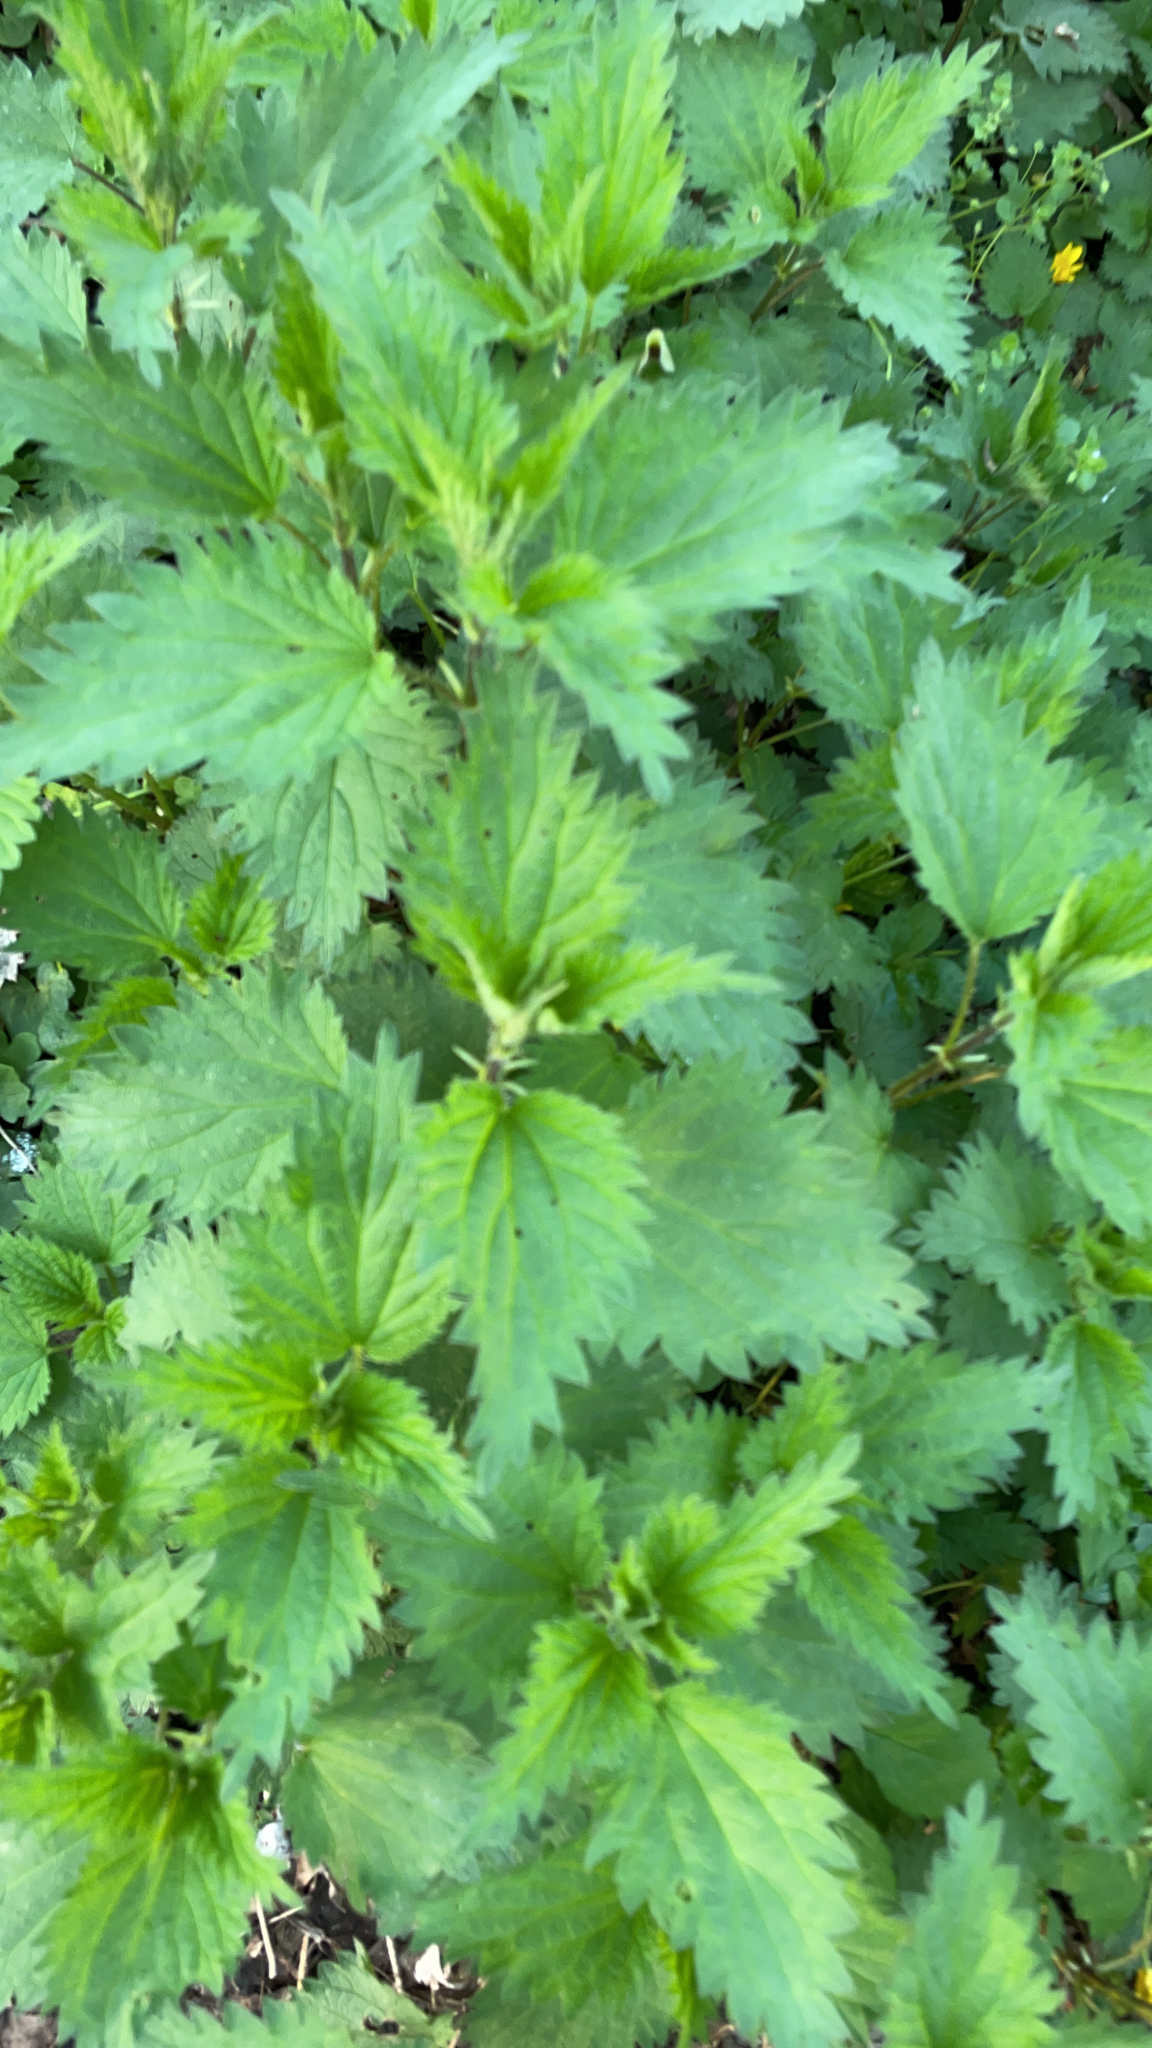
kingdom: Plantae
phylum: Tracheophyta
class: Magnoliopsida
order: Rosales
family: Urticaceae
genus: Urtica
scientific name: Urtica dioica
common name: Common nettle
